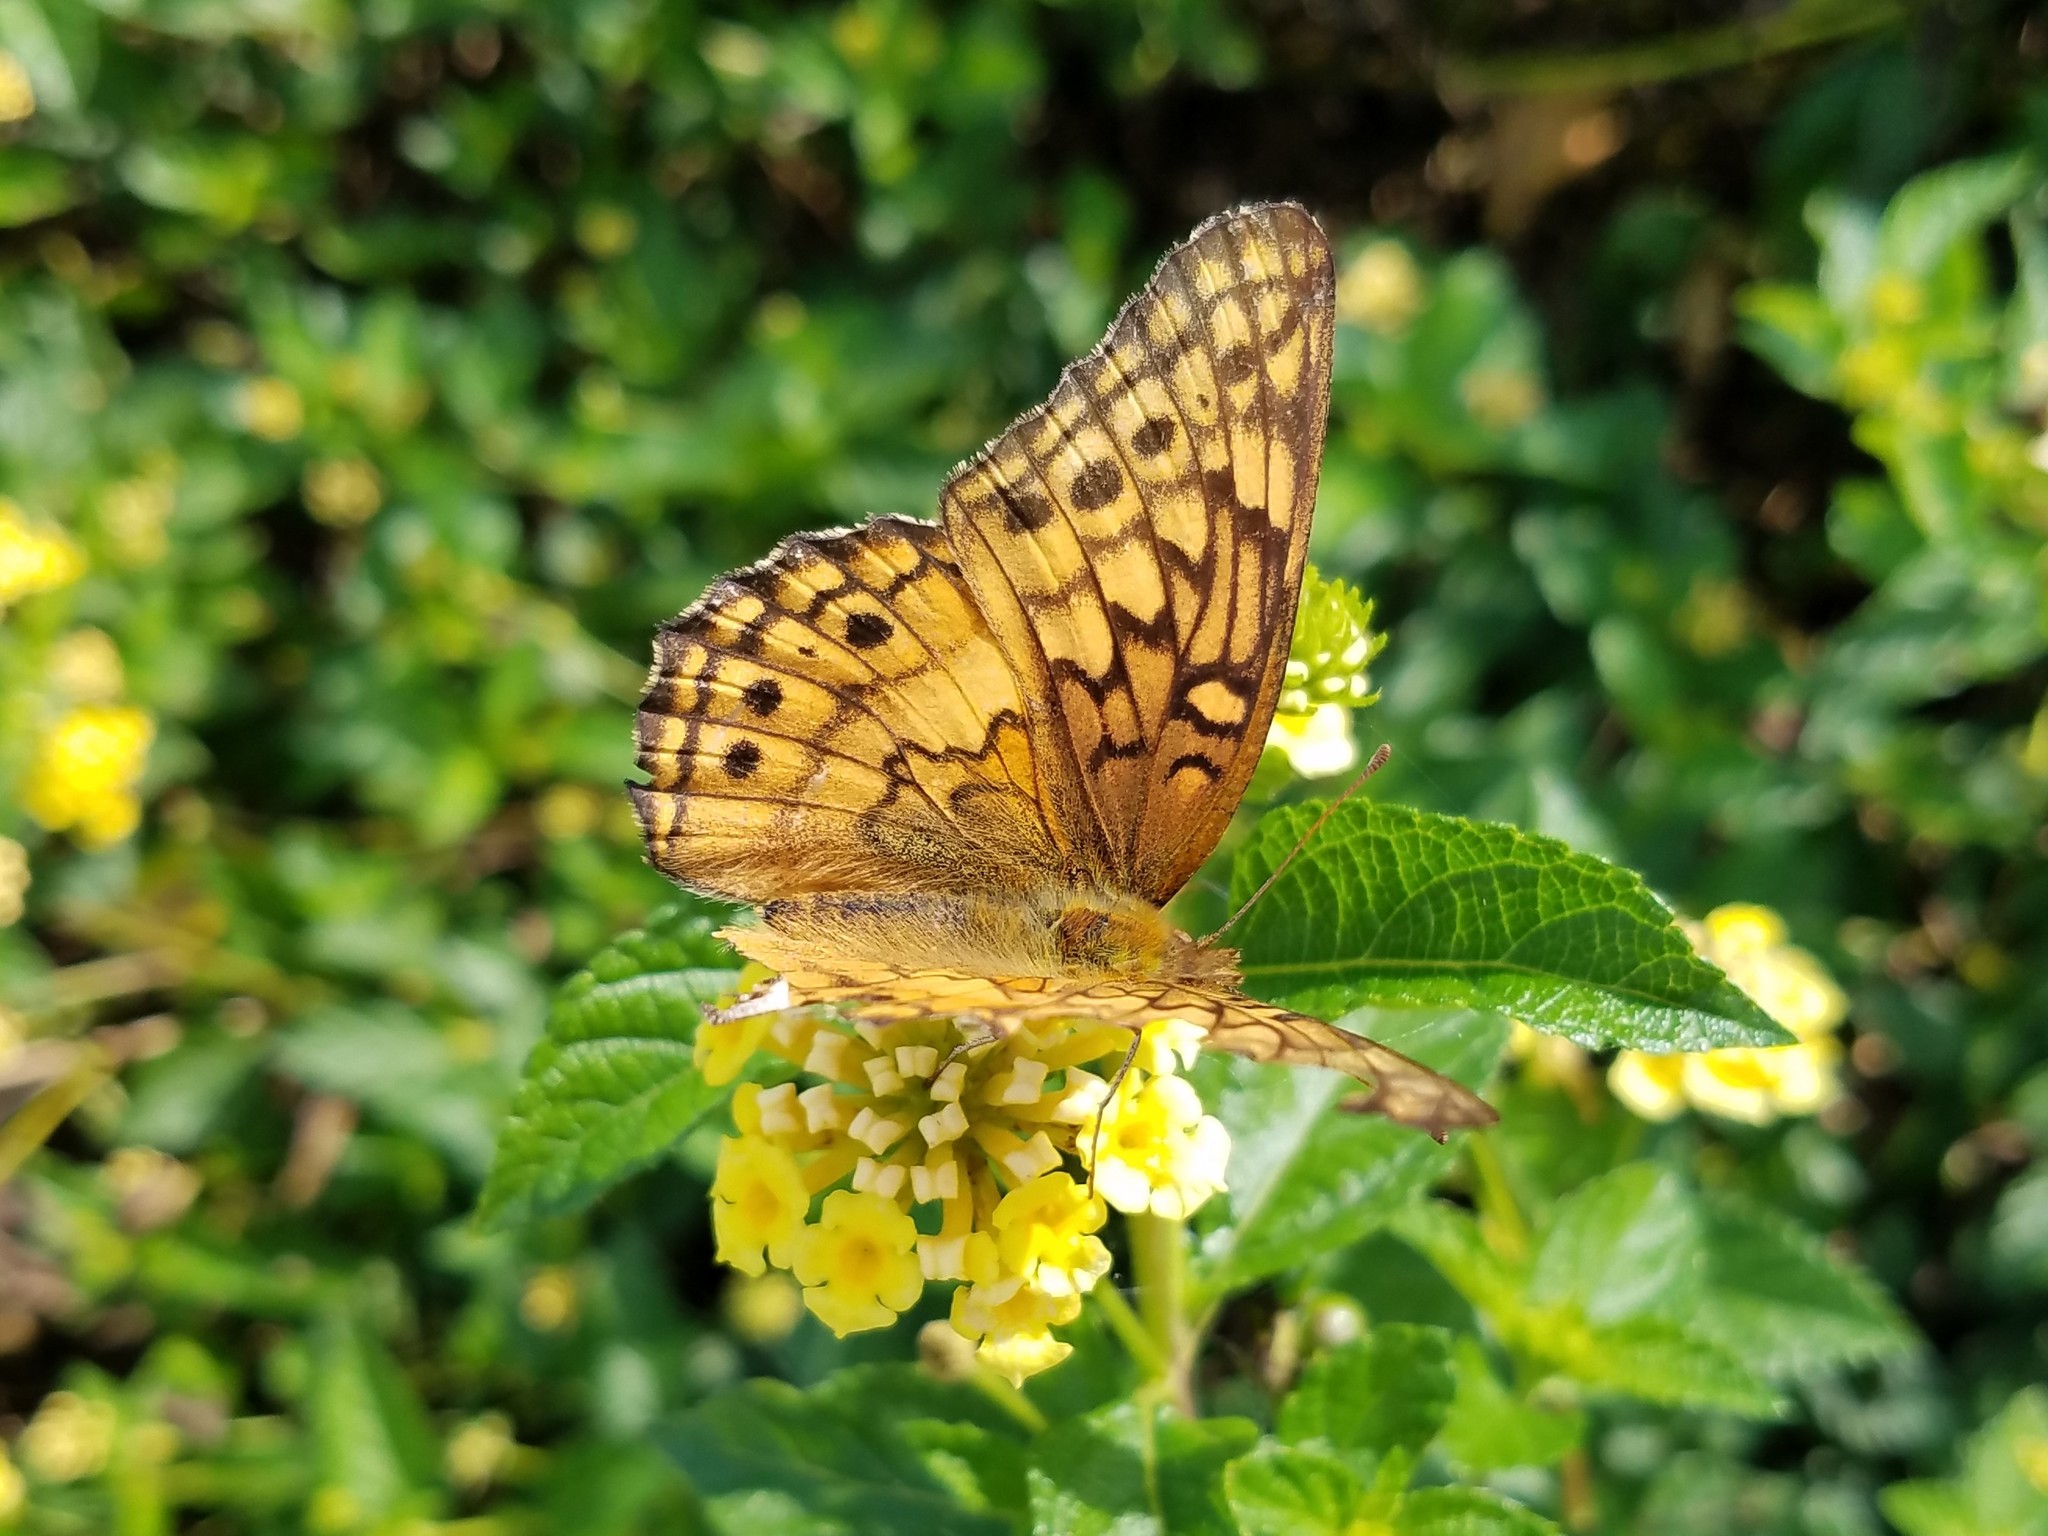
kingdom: Animalia
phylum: Arthropoda
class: Insecta
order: Lepidoptera
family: Nymphalidae
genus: Euptoieta
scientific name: Euptoieta claudia
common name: Variegated fritillary
